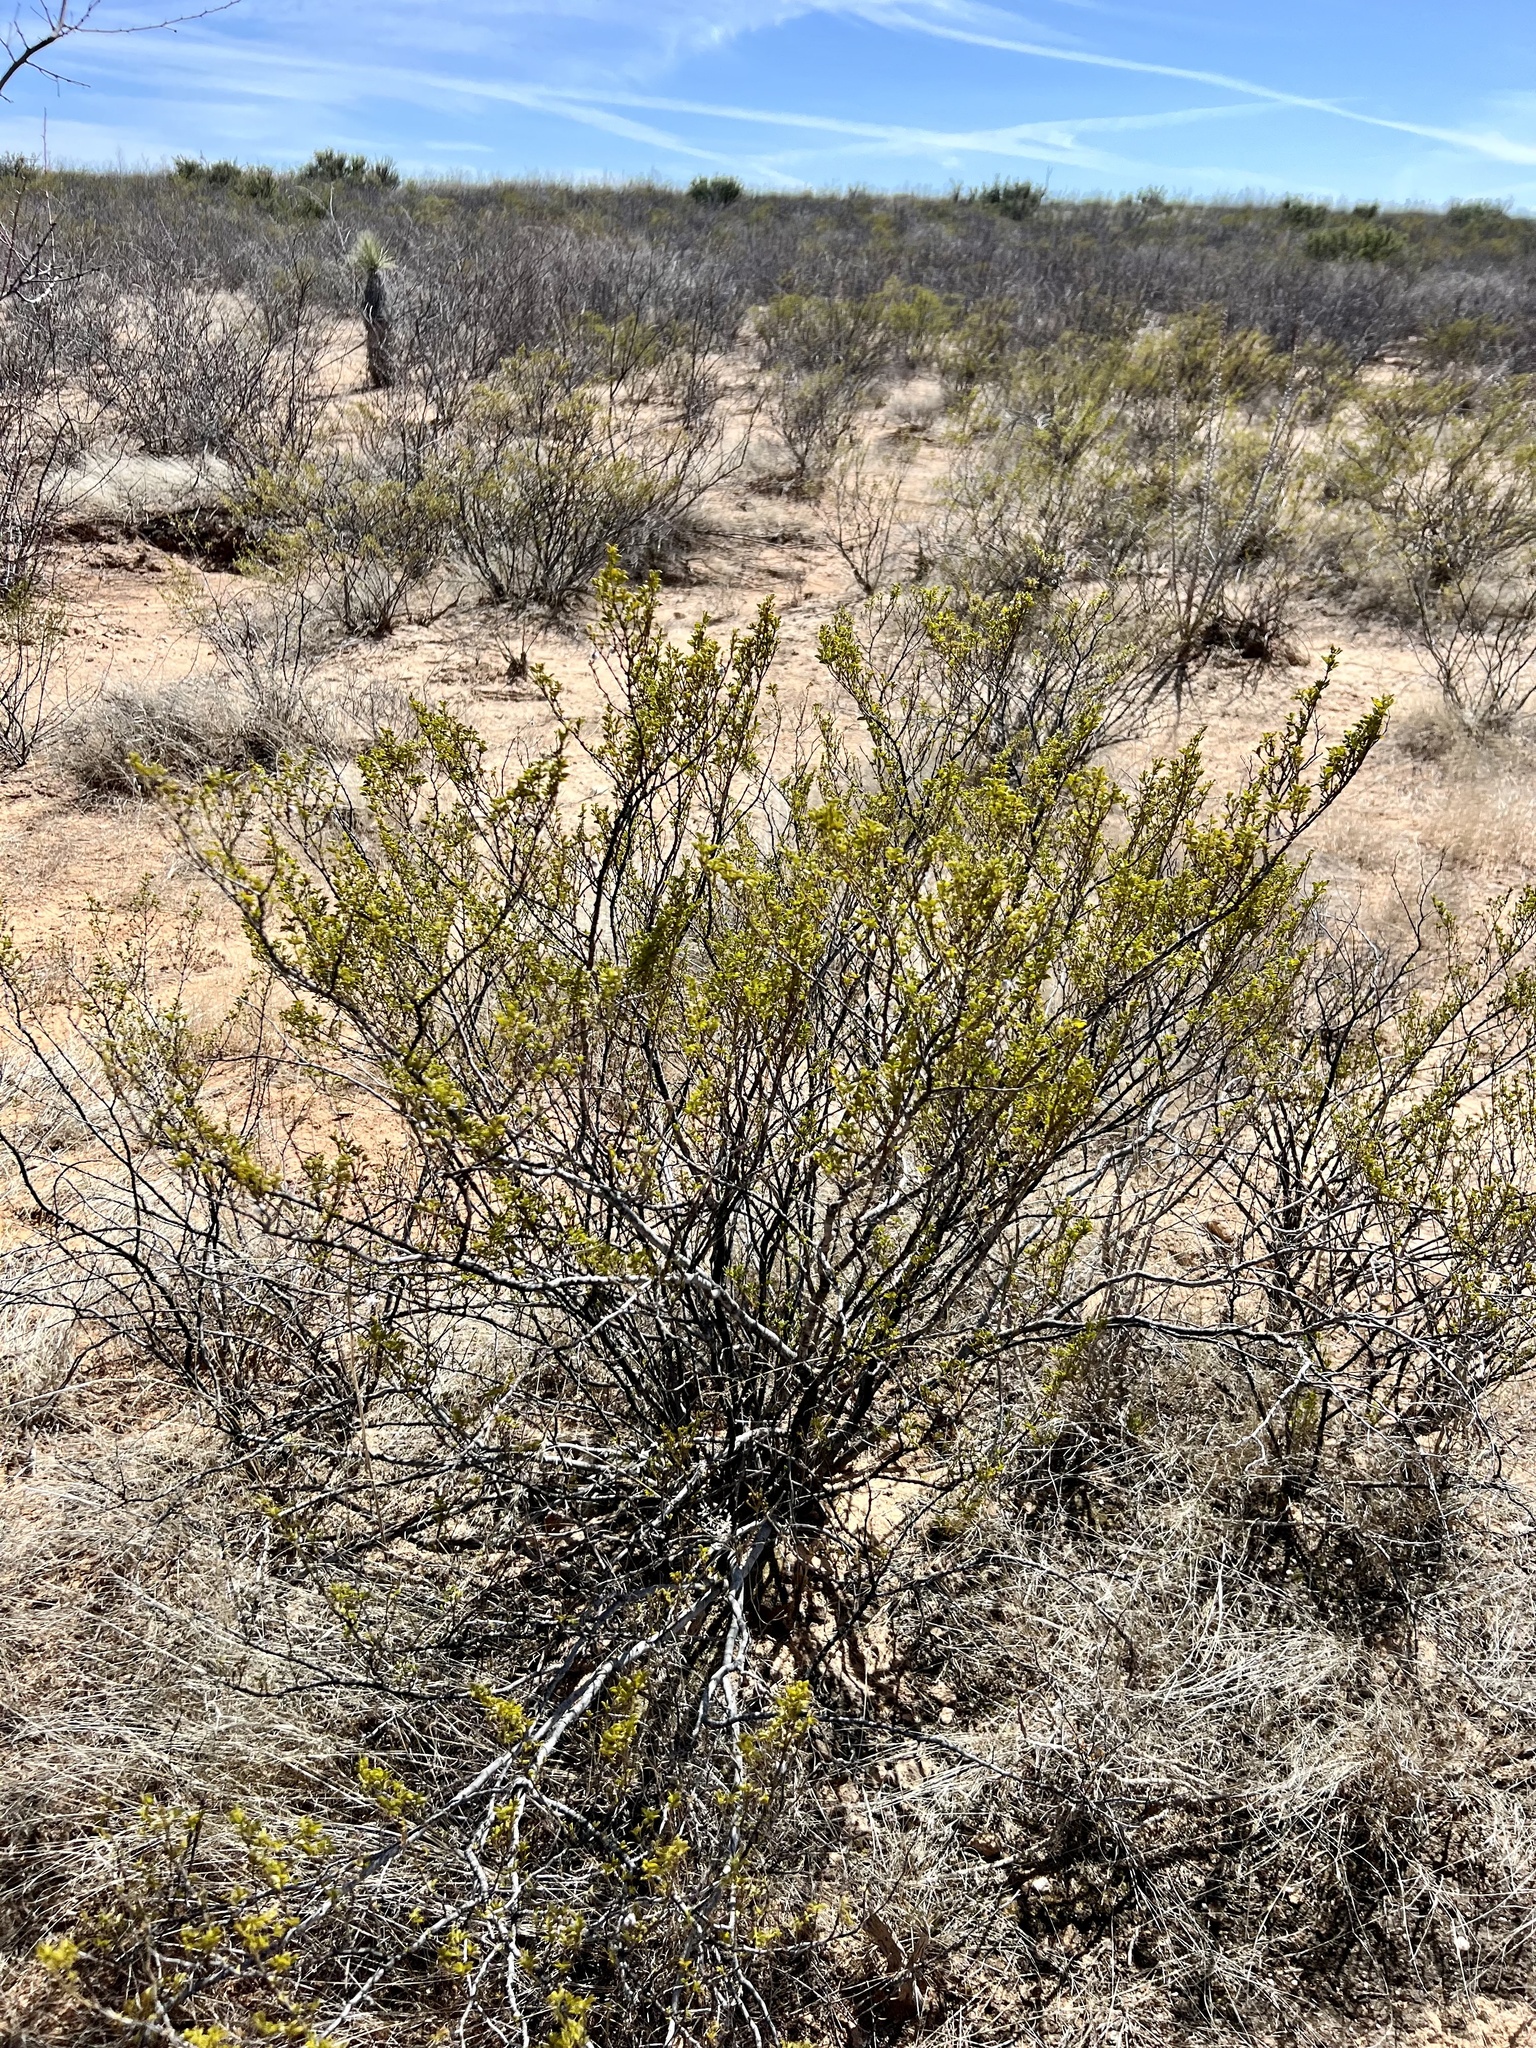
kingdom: Plantae
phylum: Tracheophyta
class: Magnoliopsida
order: Zygophyllales
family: Zygophyllaceae
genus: Larrea
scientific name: Larrea tridentata
